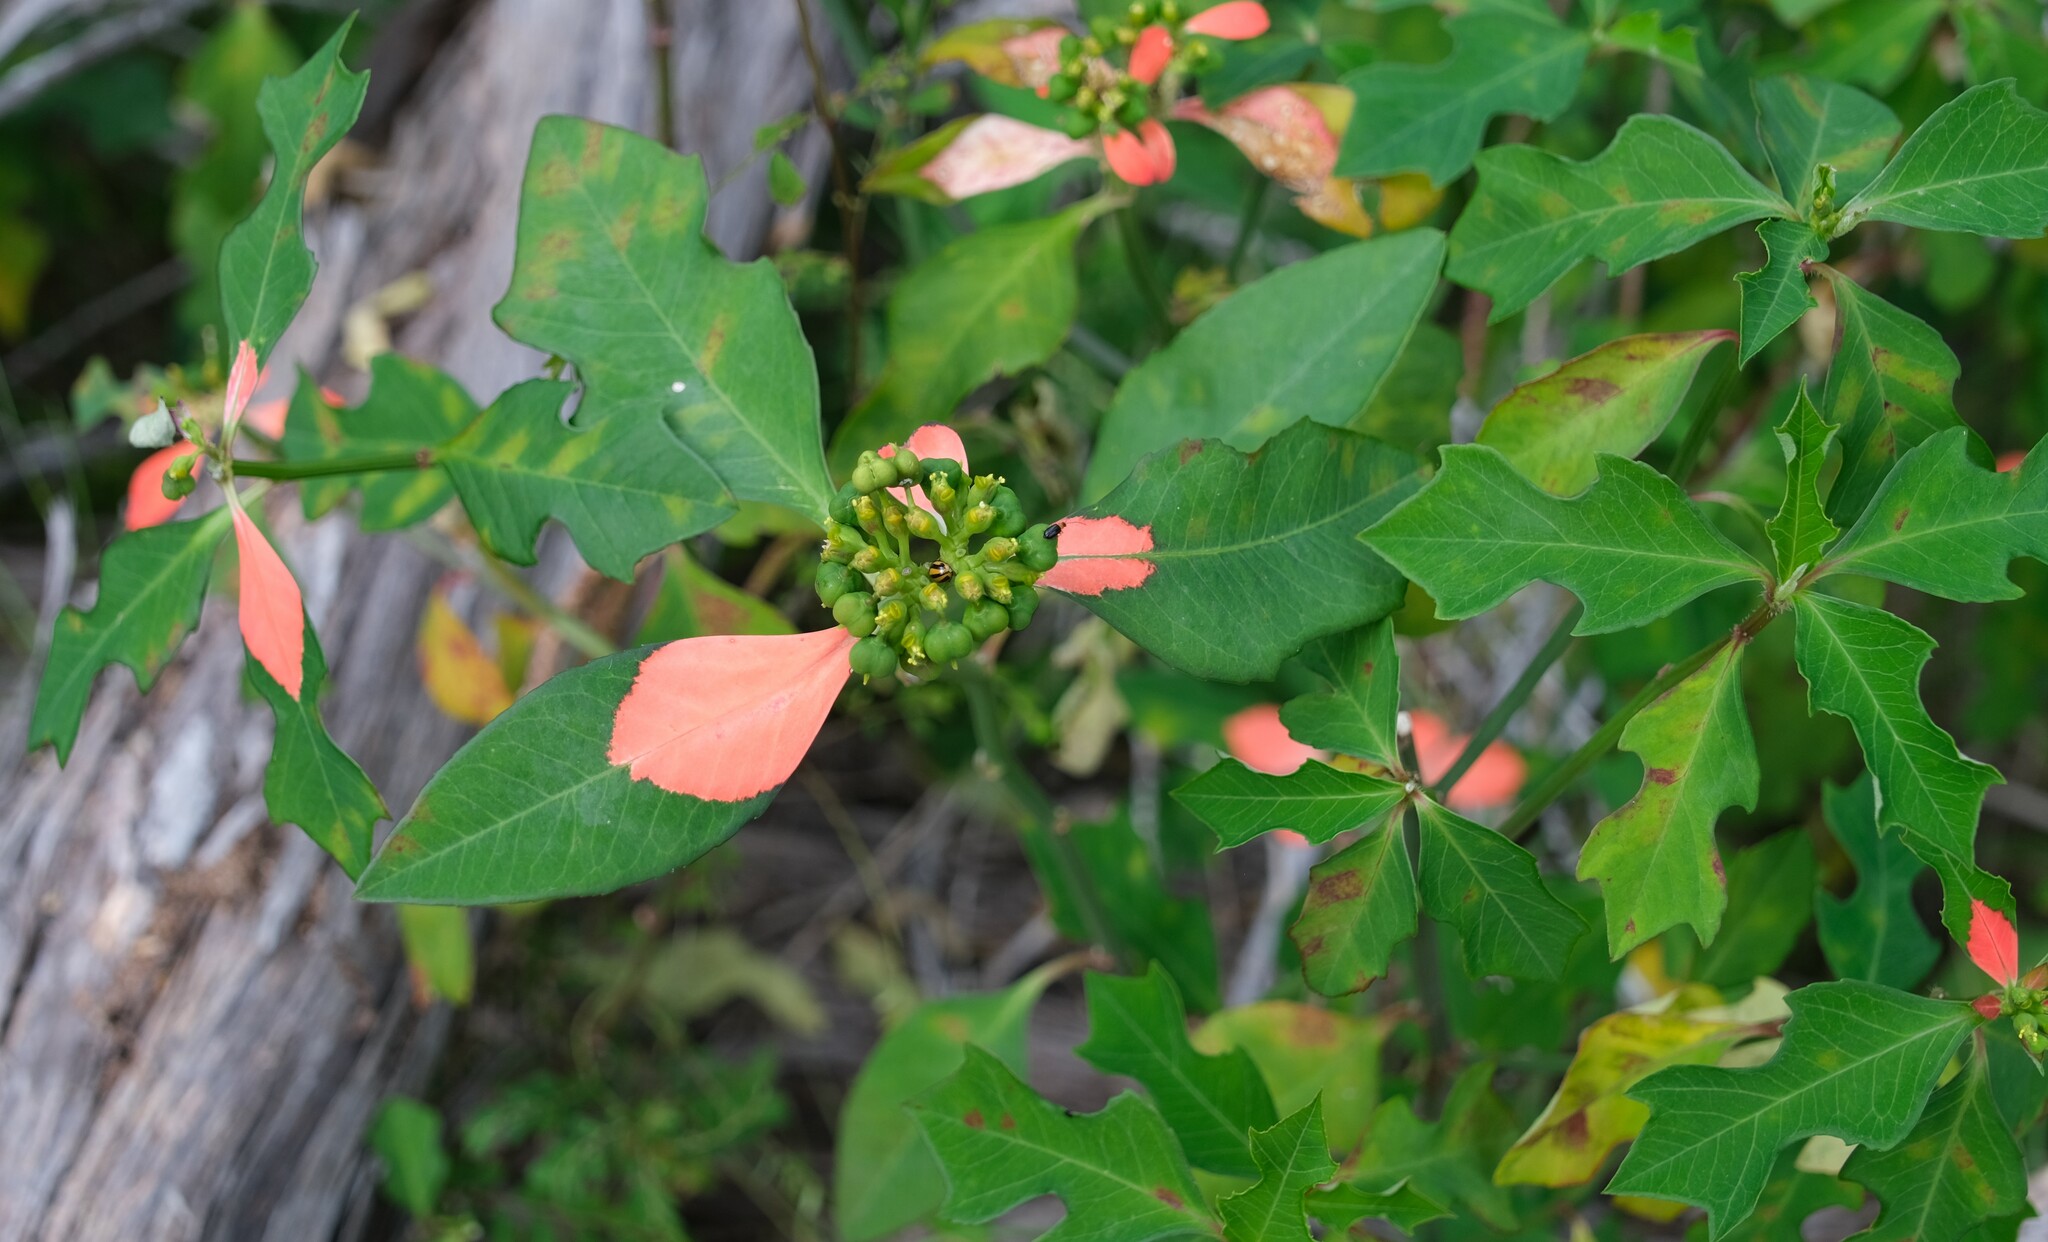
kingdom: Plantae
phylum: Tracheophyta
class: Magnoliopsida
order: Malpighiales
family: Euphorbiaceae
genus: Euphorbia
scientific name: Euphorbia heterophylla
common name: Mexican fireplant
